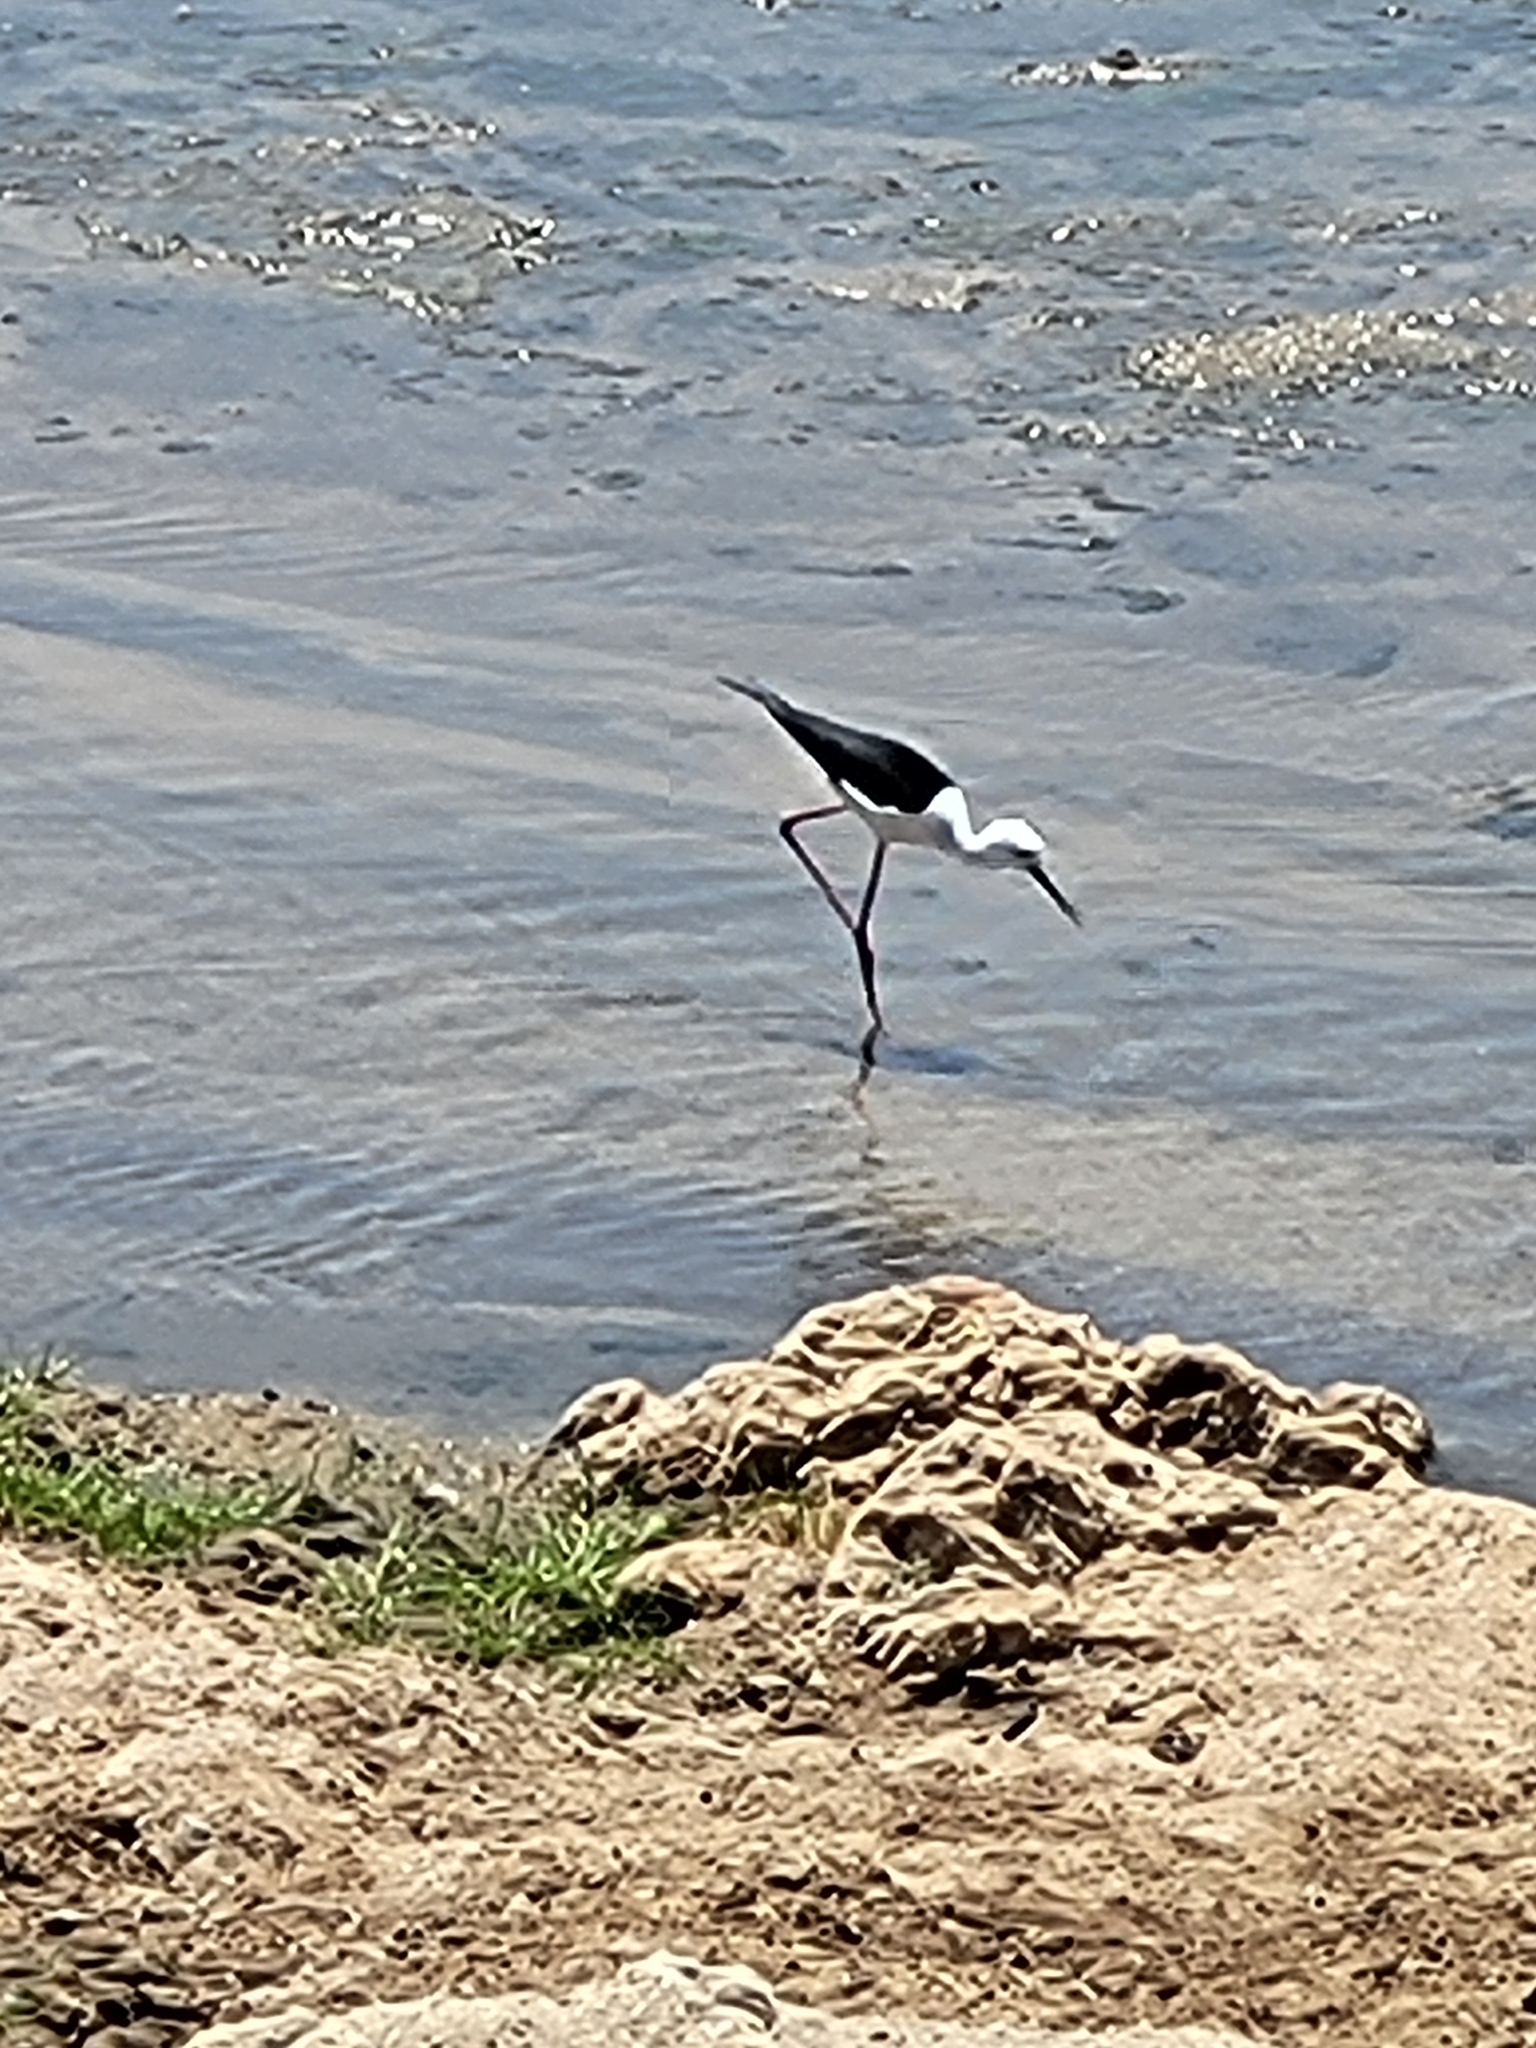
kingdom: Animalia
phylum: Chordata
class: Aves
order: Charadriiformes
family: Recurvirostridae
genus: Himantopus
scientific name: Himantopus himantopus
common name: Black-winged stilt
